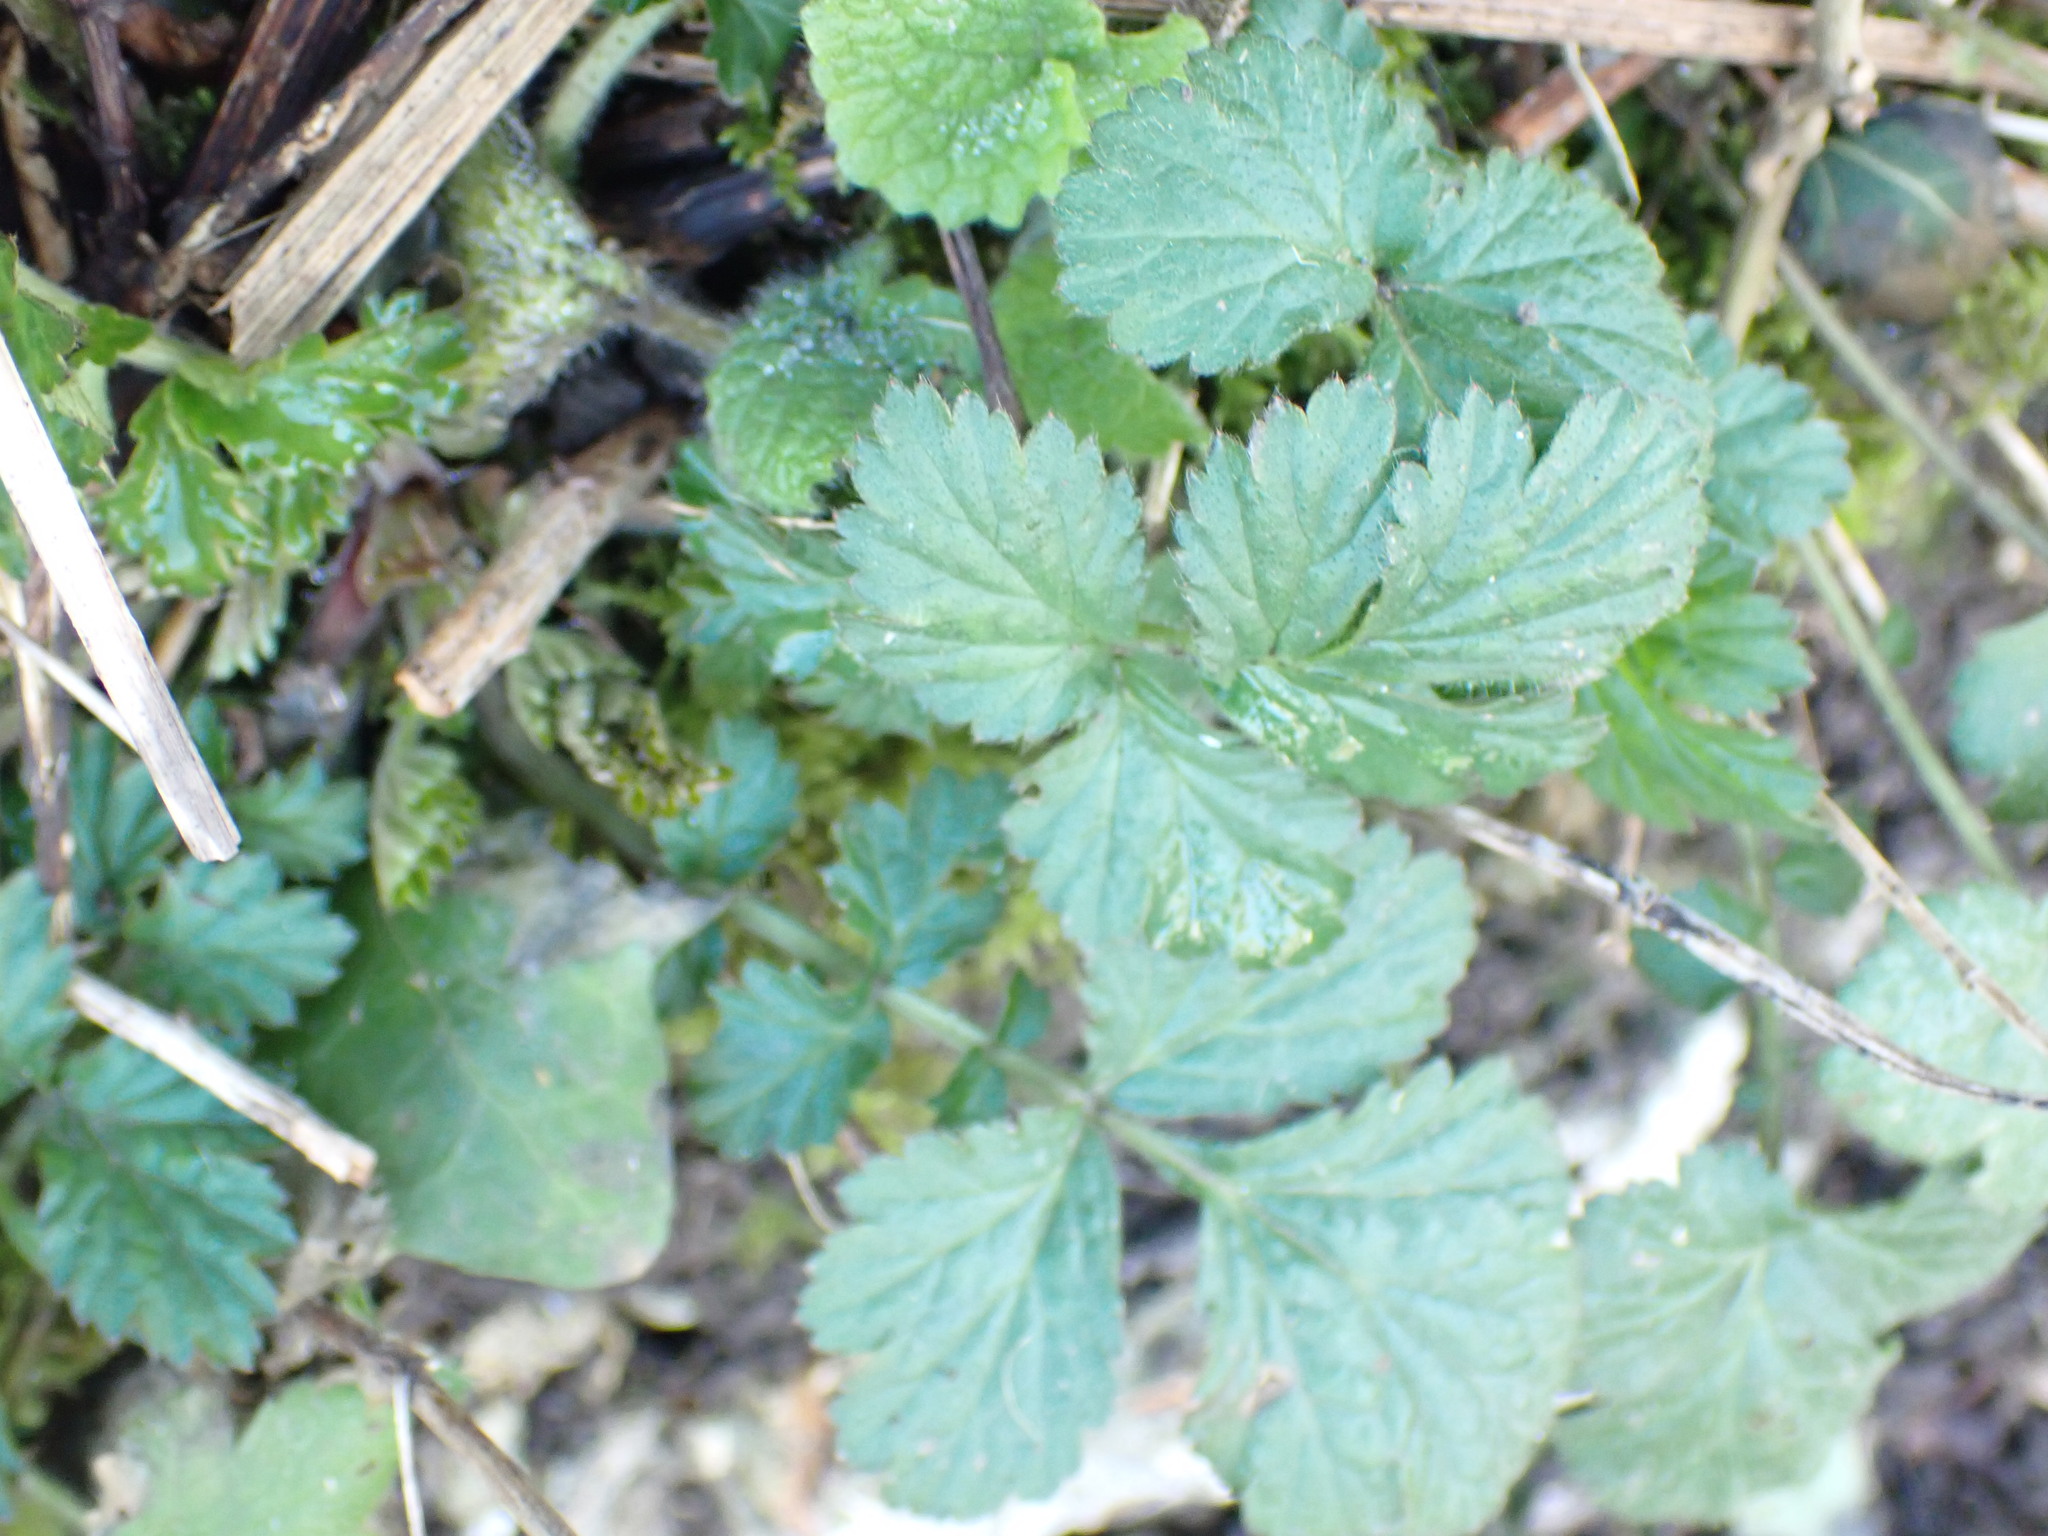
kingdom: Plantae
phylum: Tracheophyta
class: Magnoliopsida
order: Rosales
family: Rosaceae
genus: Geum
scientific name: Geum urbanum
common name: Wood avens
